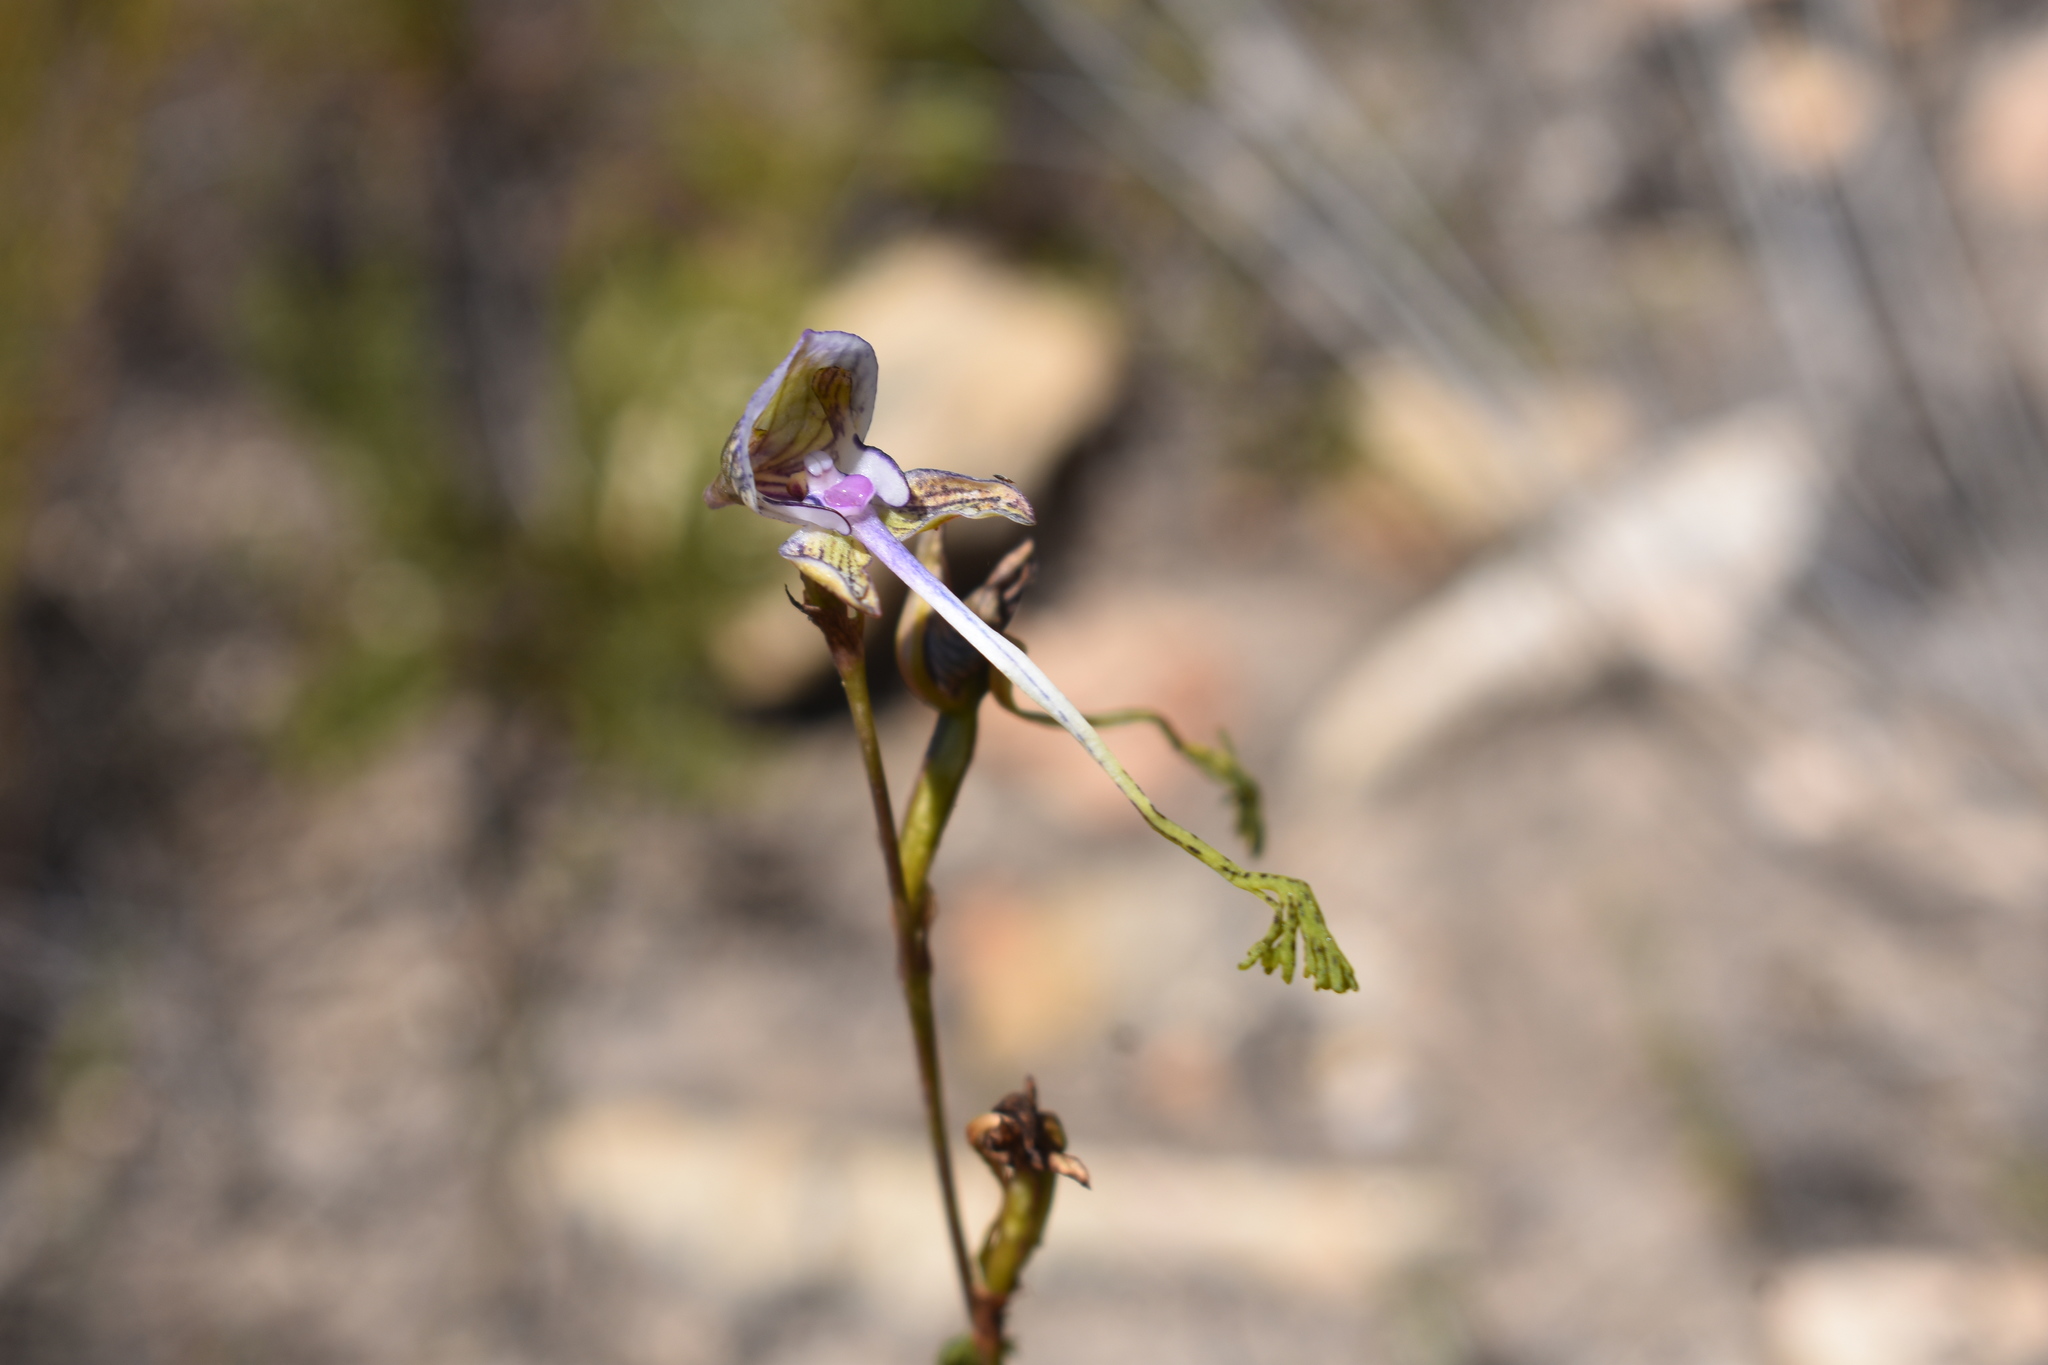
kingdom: Plantae
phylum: Tracheophyta
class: Liliopsida
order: Asparagales
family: Orchidaceae
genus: Disa
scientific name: Disa multifida
